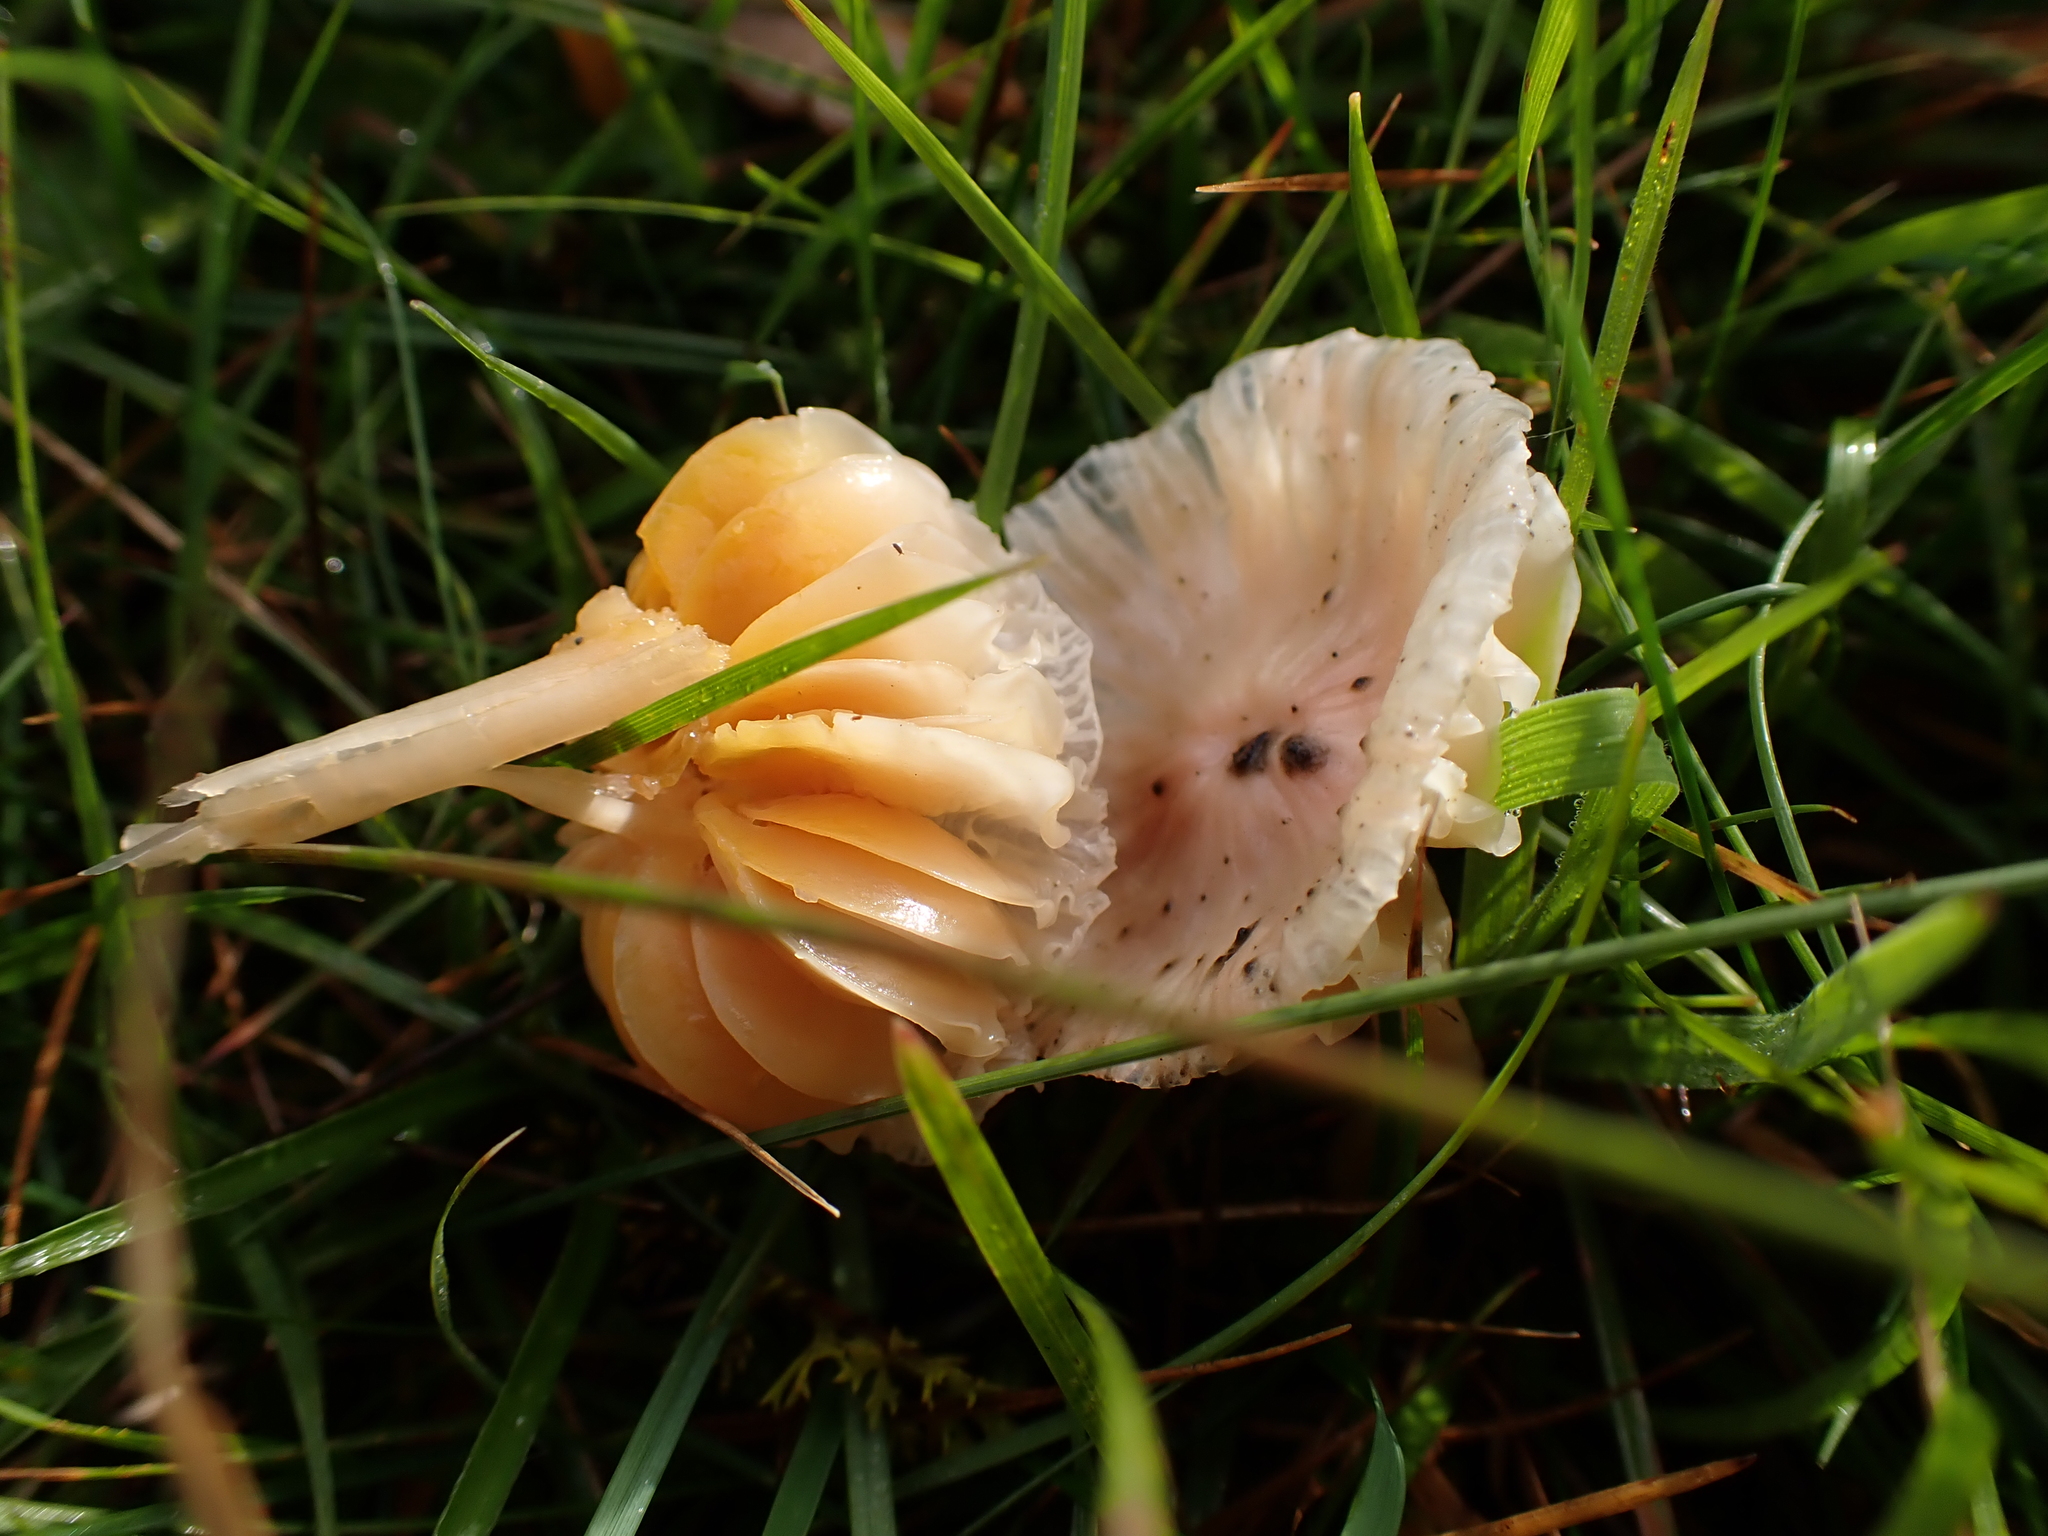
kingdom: Fungi
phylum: Basidiomycota
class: Agaricomycetes
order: Agaricales
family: Hygrophoraceae
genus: Gliophorus
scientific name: Gliophorus psittacinus
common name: Parrot wax-cap
